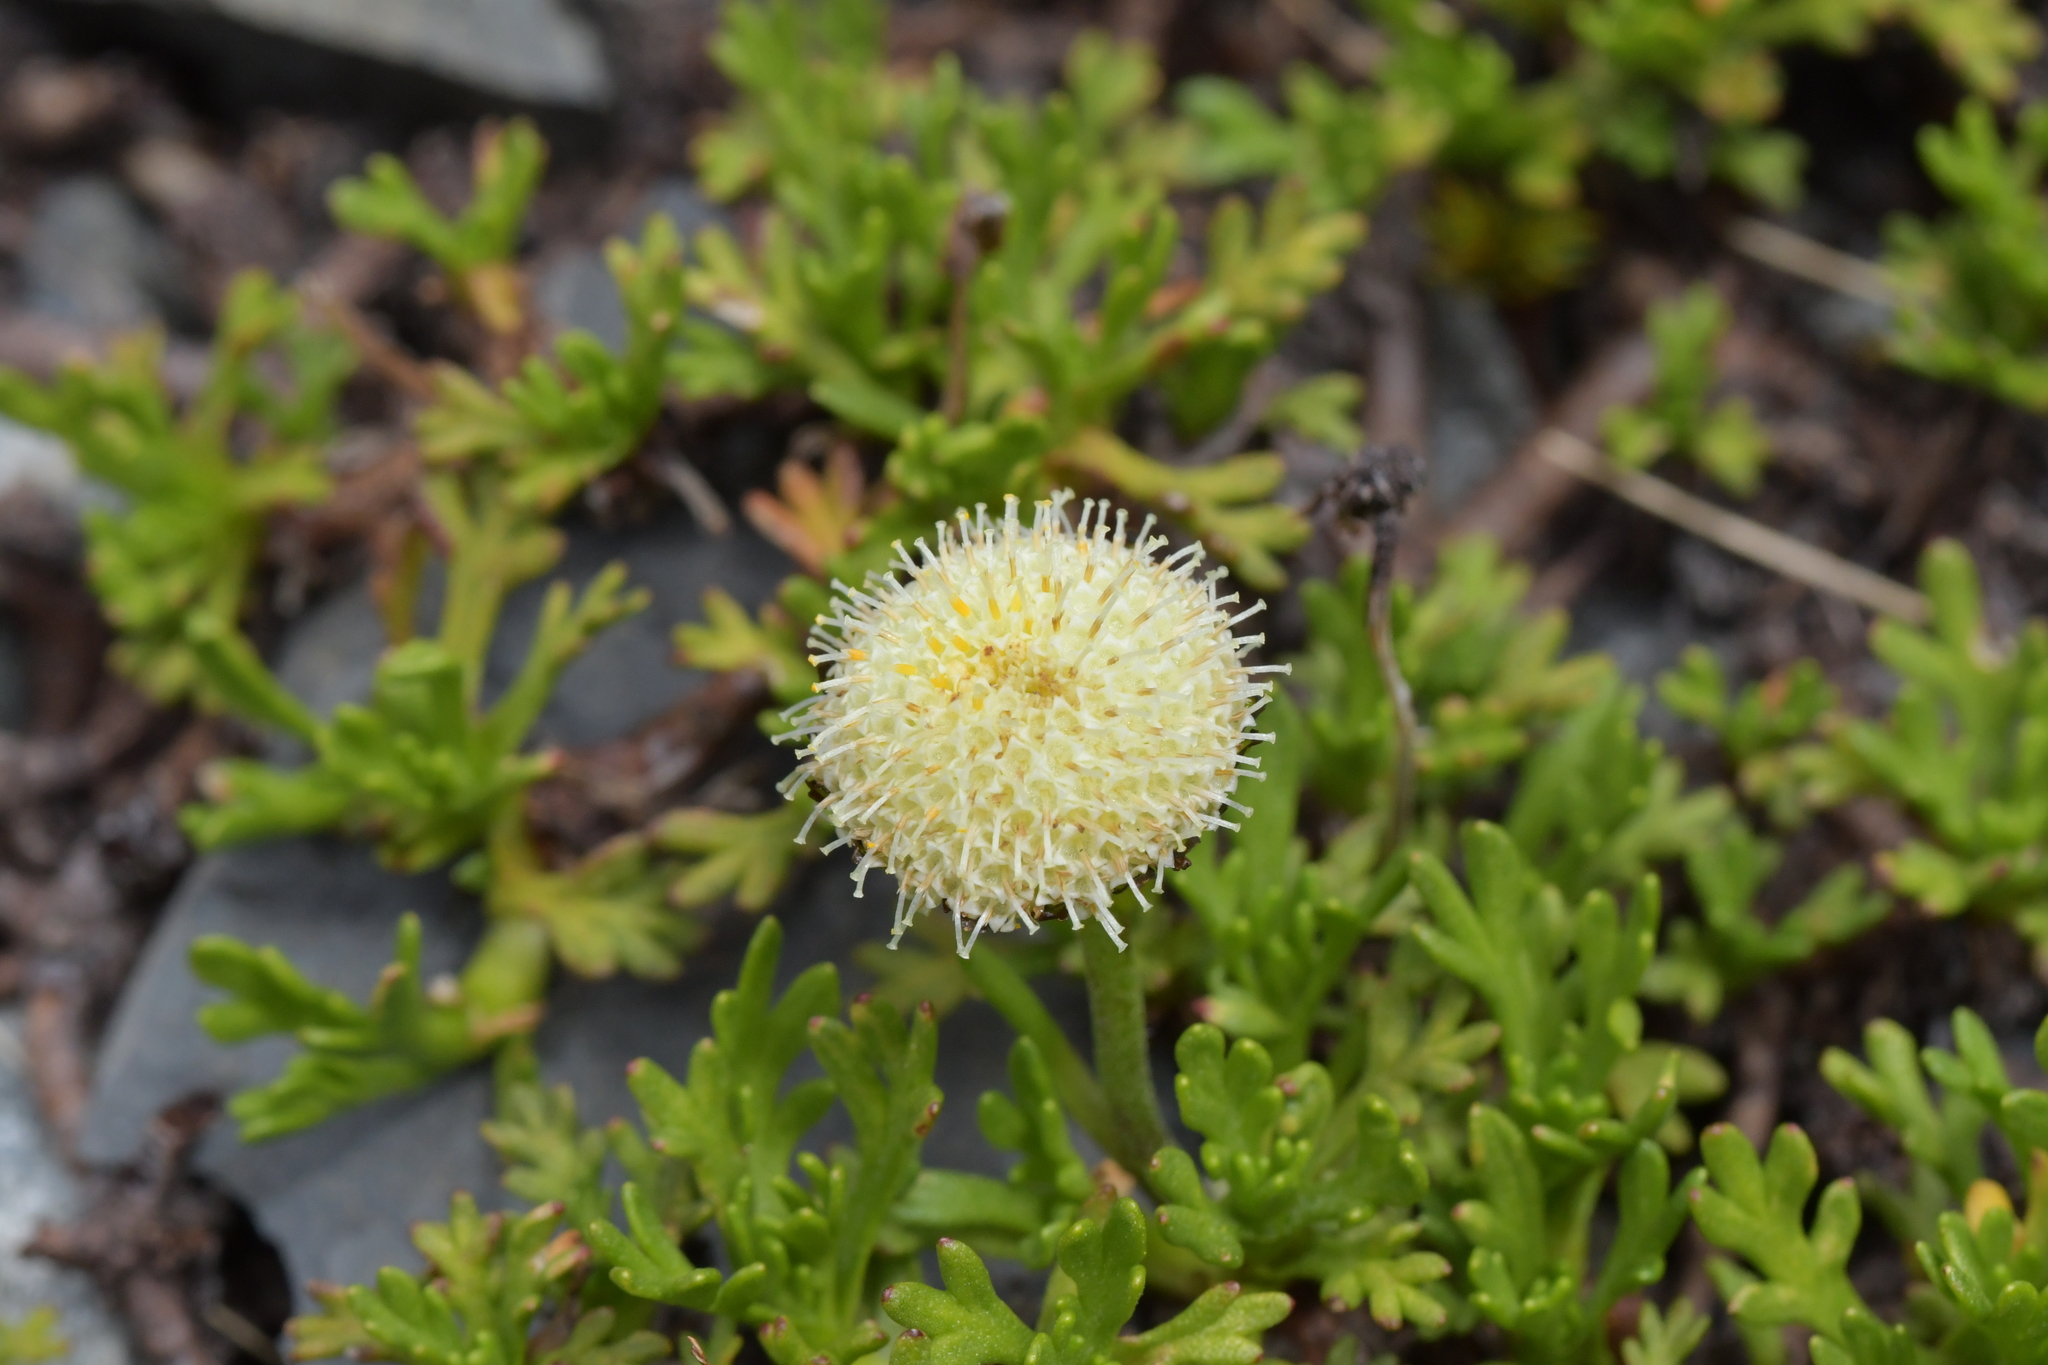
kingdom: Plantae
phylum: Tracheophyta
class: Magnoliopsida
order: Asterales
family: Asteraceae
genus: Leptinella
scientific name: Leptinella pyrethrifolia
